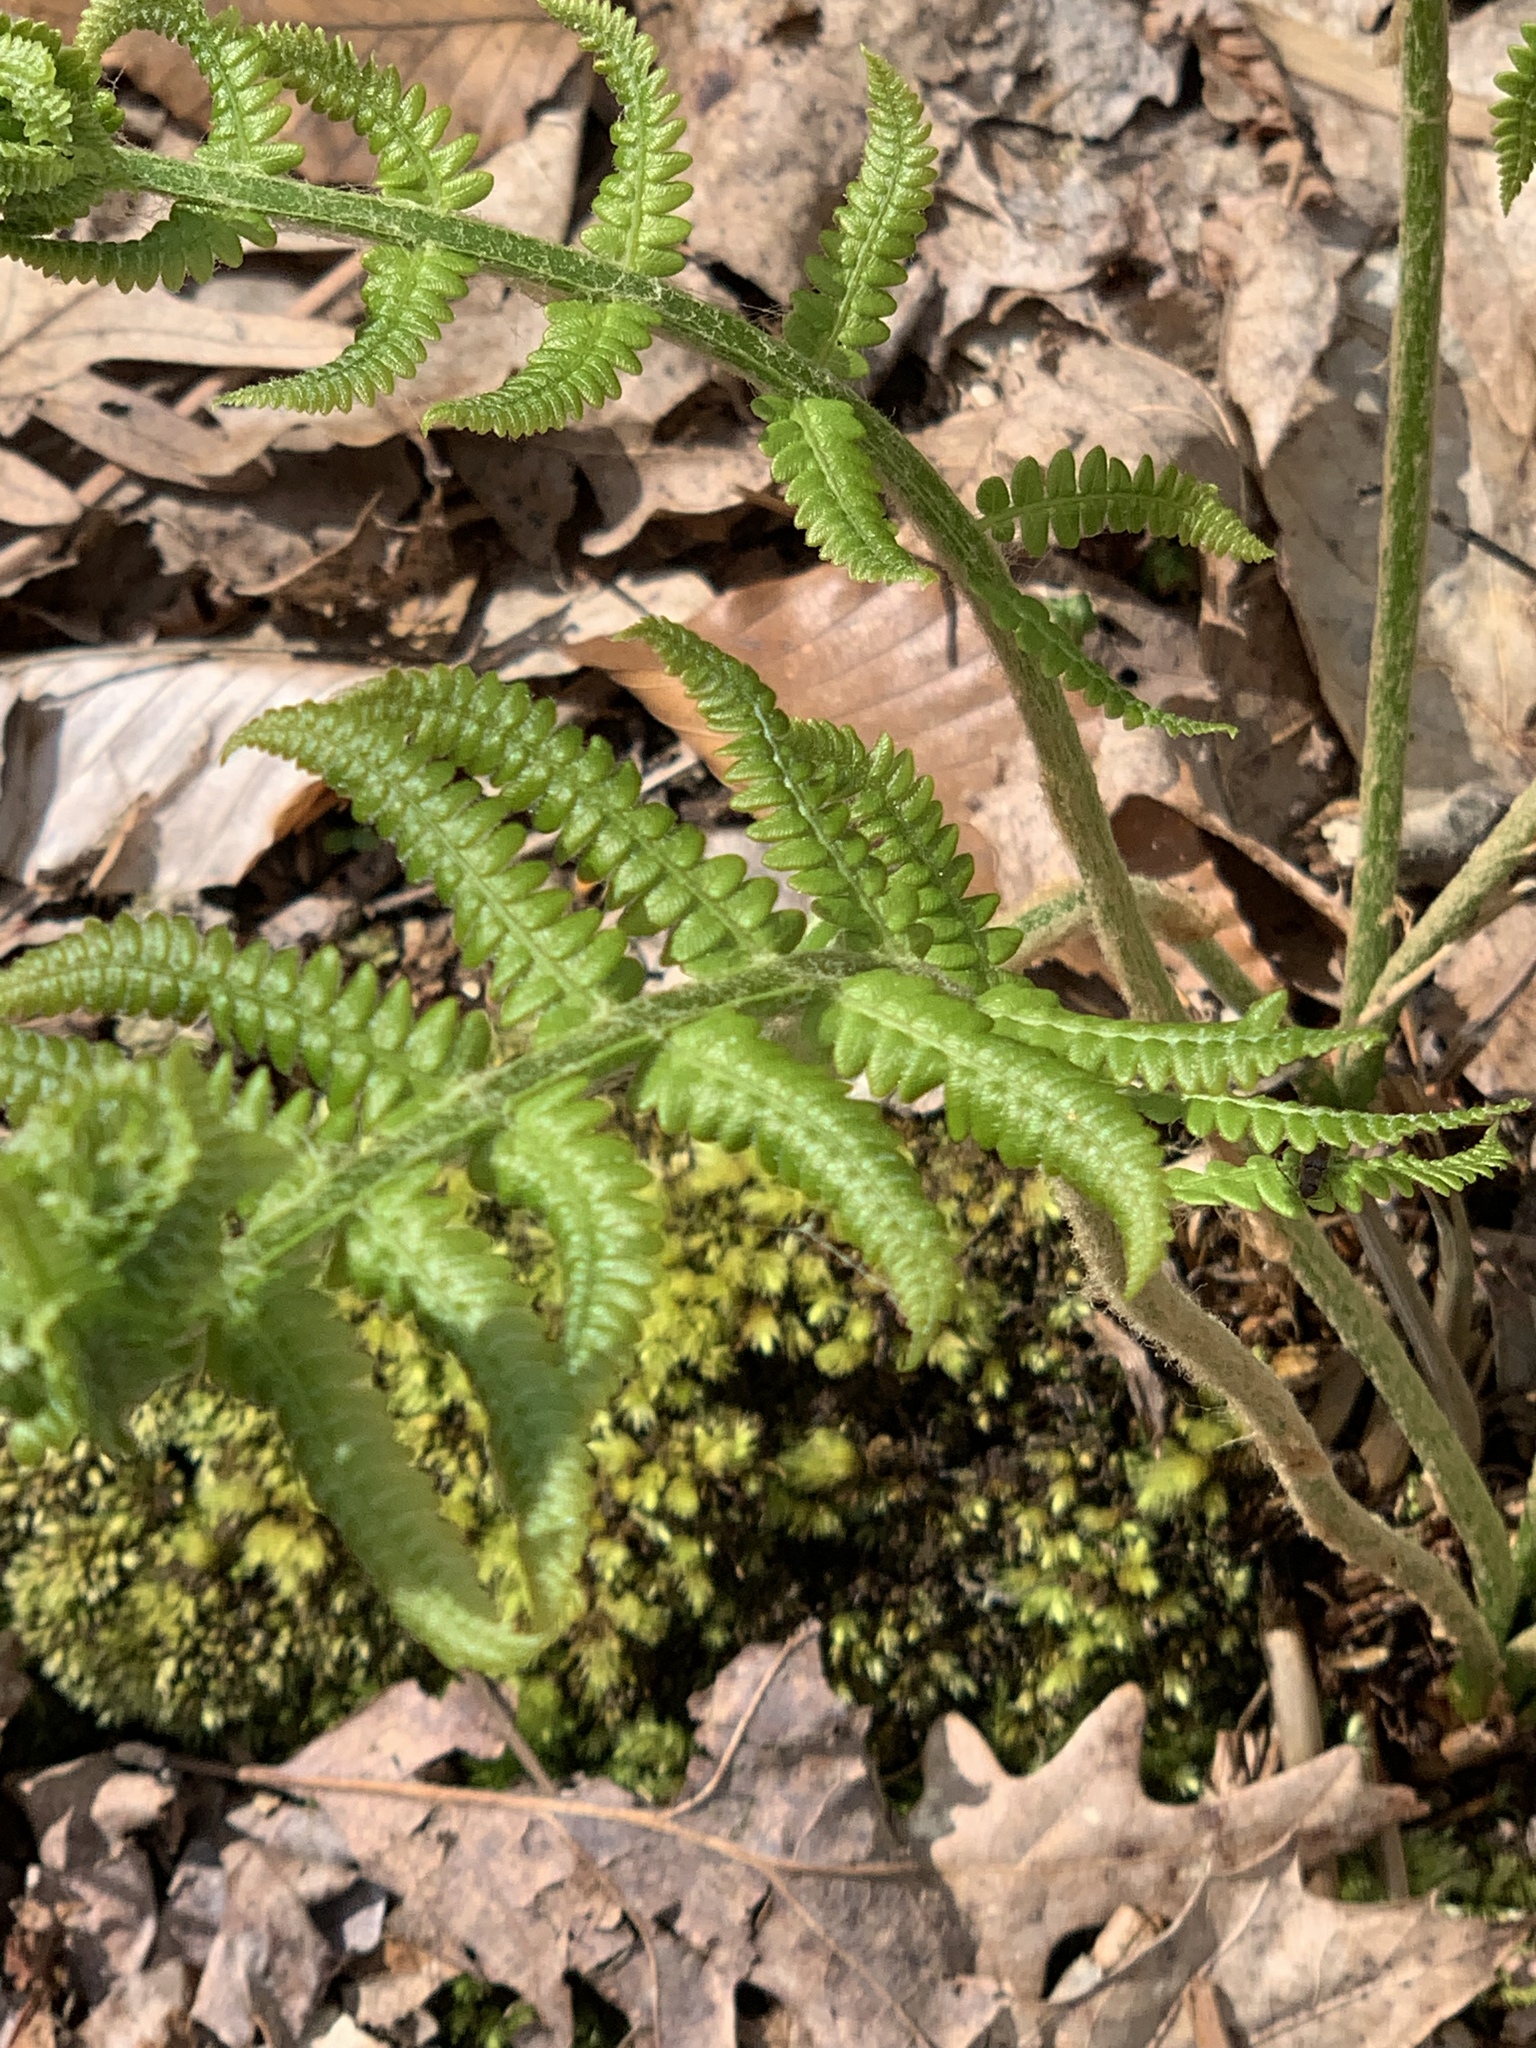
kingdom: Plantae
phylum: Tracheophyta
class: Polypodiopsida
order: Osmundales
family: Osmundaceae
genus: Osmundastrum
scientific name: Osmundastrum cinnamomeum
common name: Cinnamon fern
